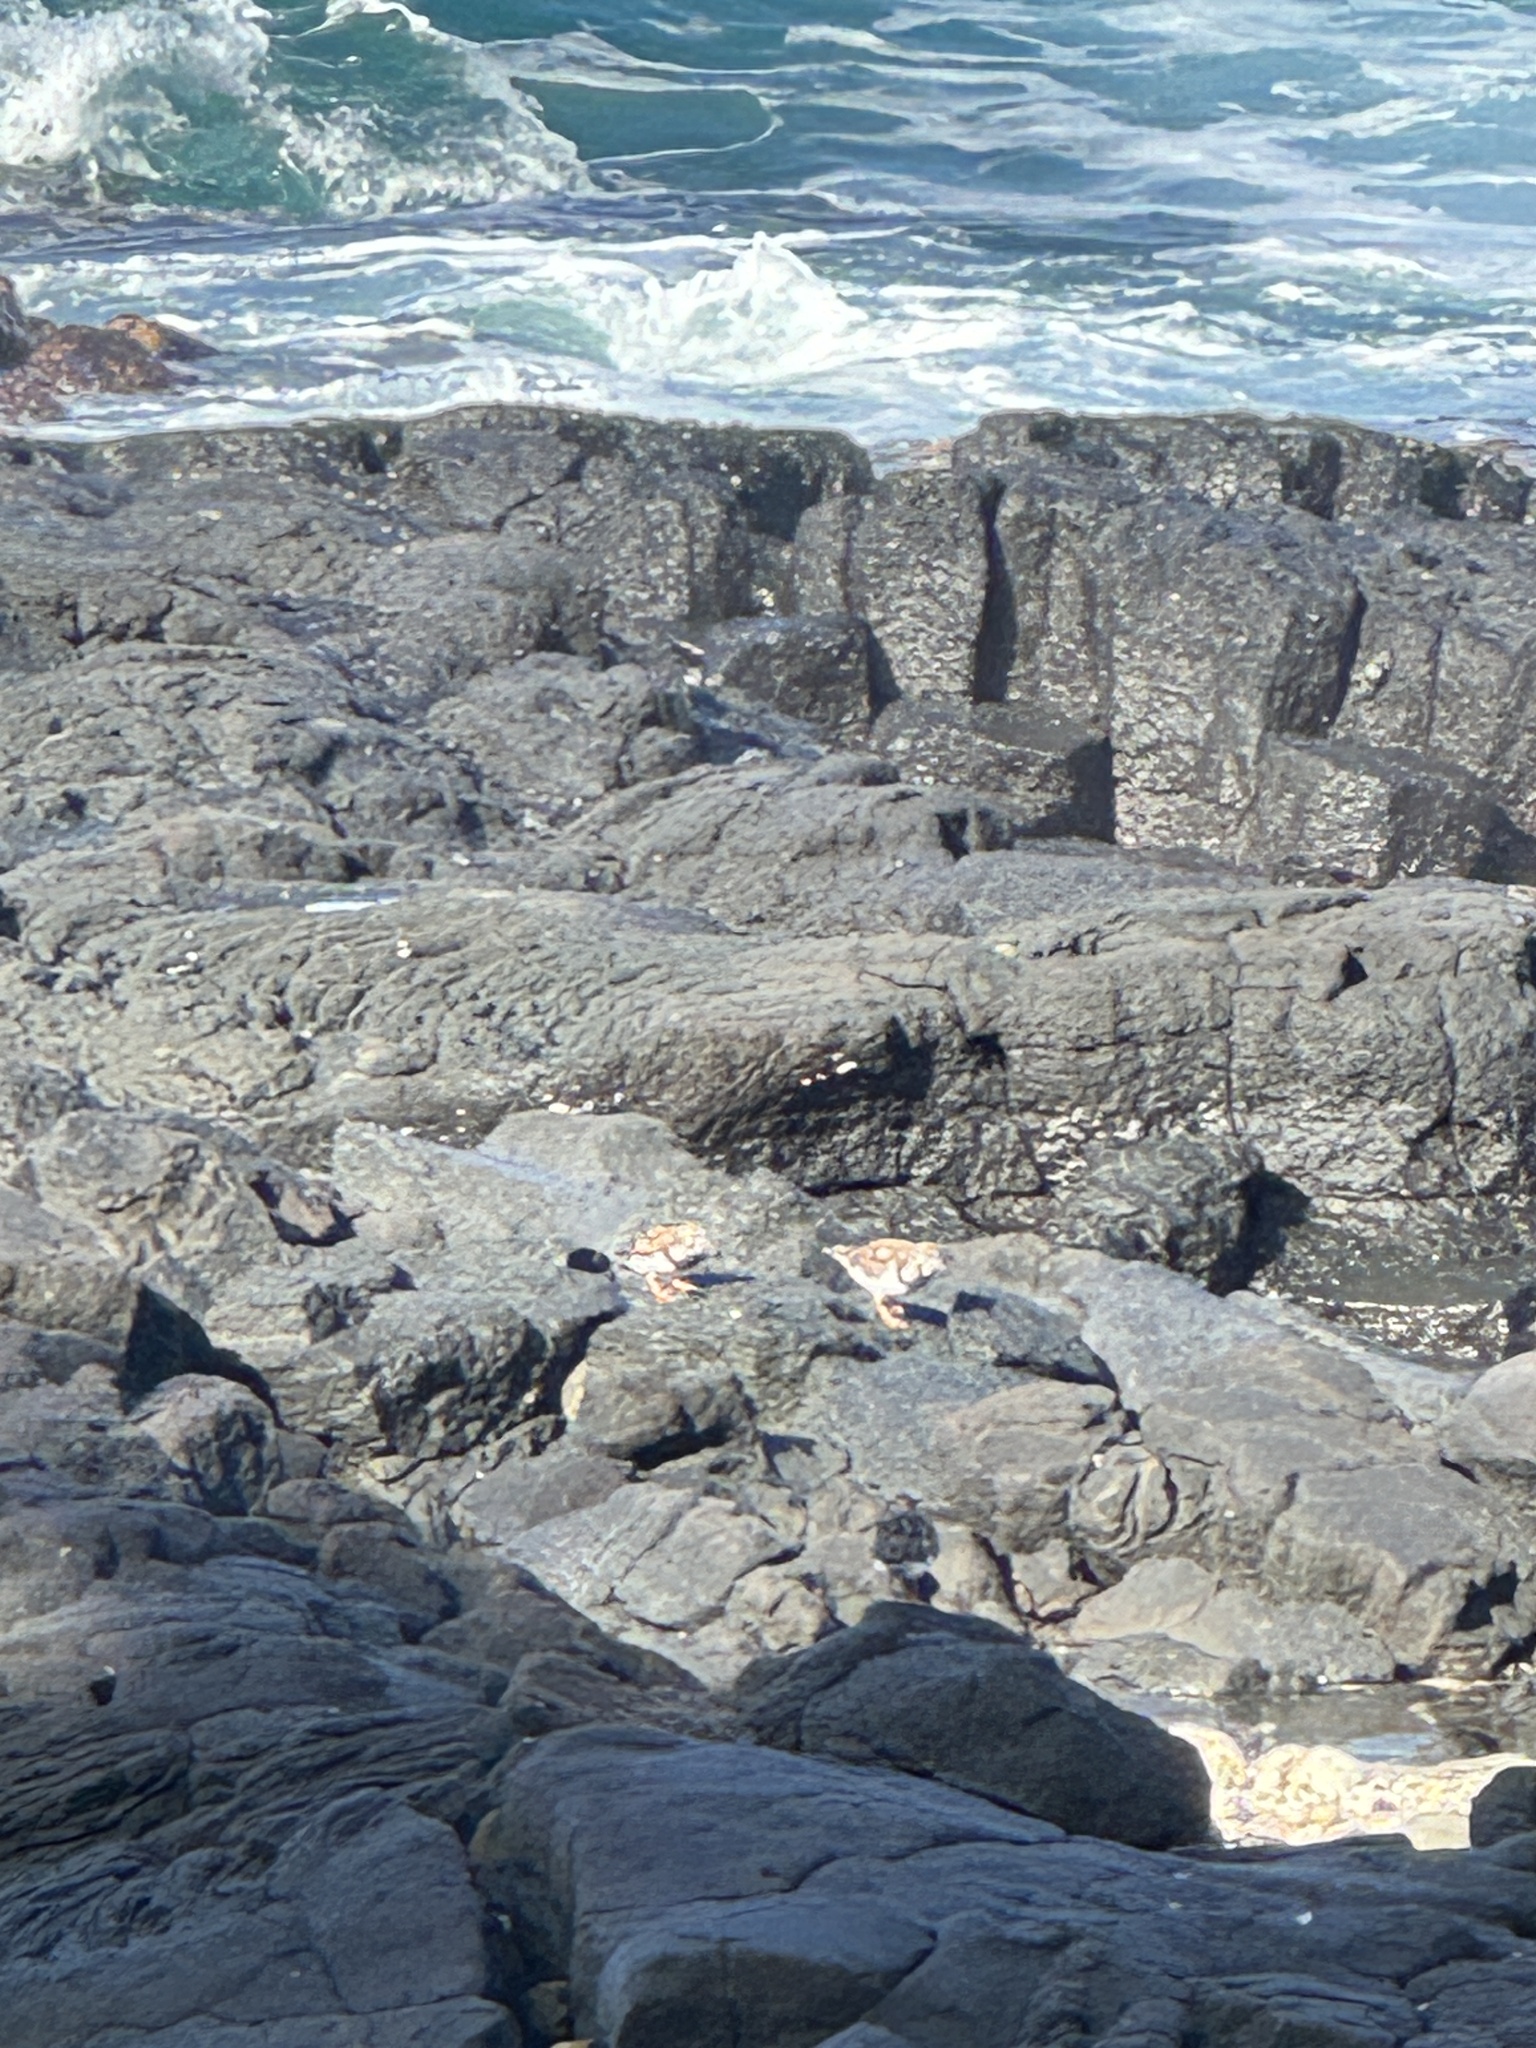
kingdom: Animalia
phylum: Chordata
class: Aves
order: Charadriiformes
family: Scolopacidae
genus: Arenaria
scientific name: Arenaria interpres
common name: Ruddy turnstone
